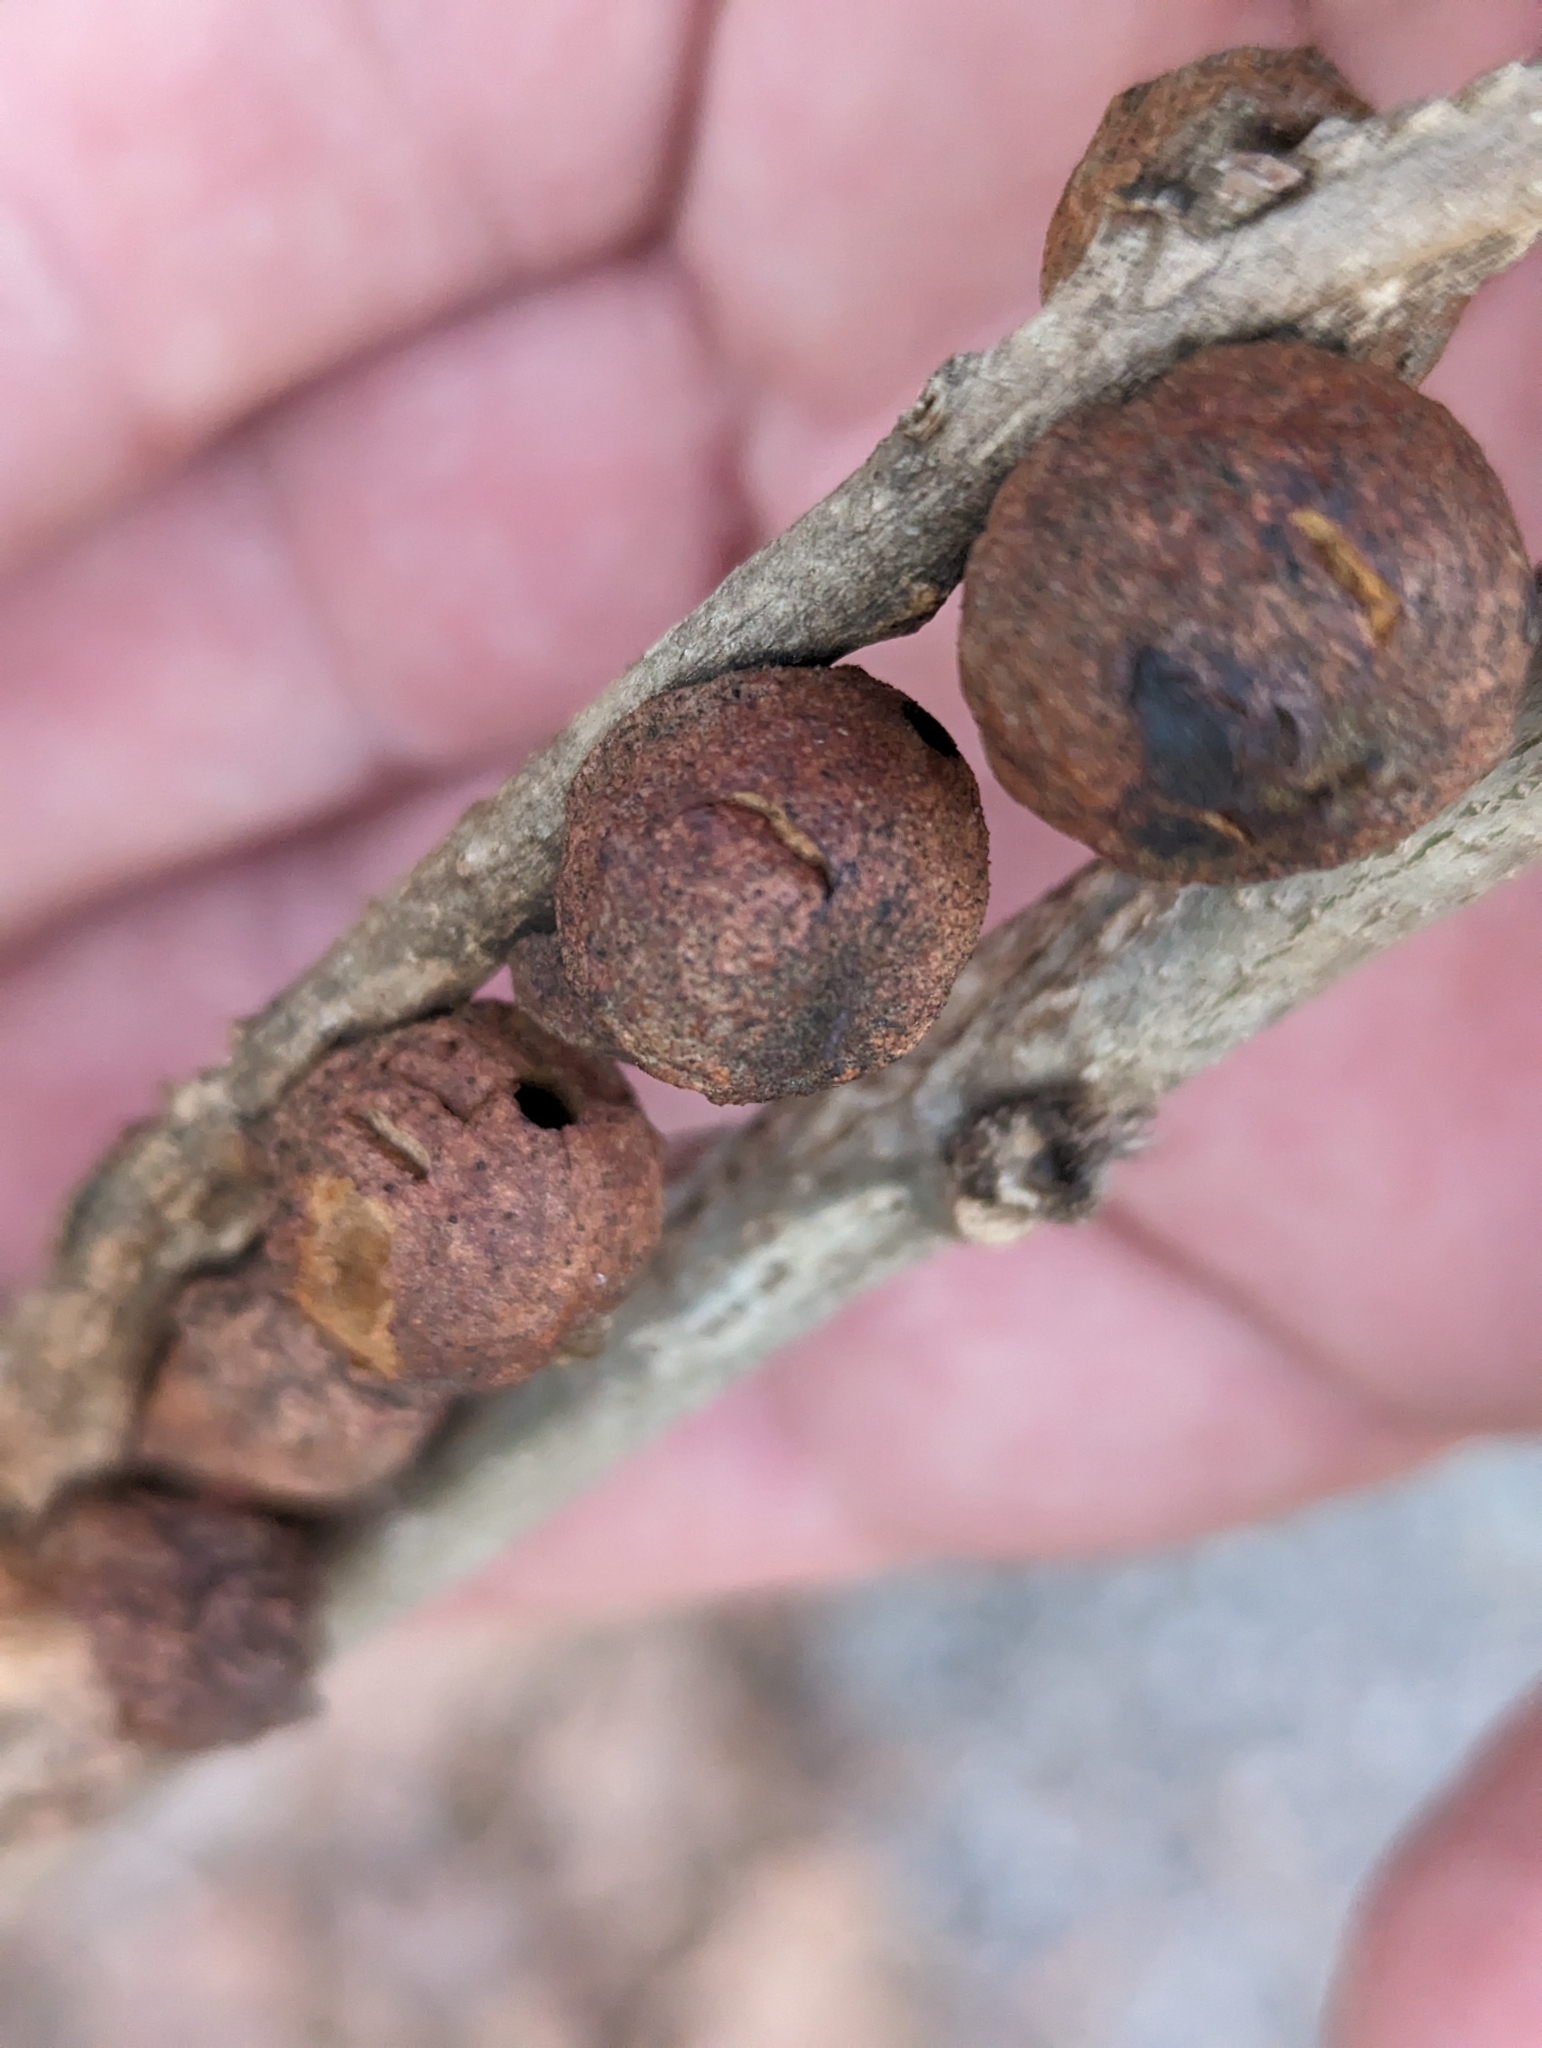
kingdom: Animalia
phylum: Arthropoda
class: Insecta
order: Hymenoptera
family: Cynipidae
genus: Disholcaspis
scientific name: Disholcaspis
